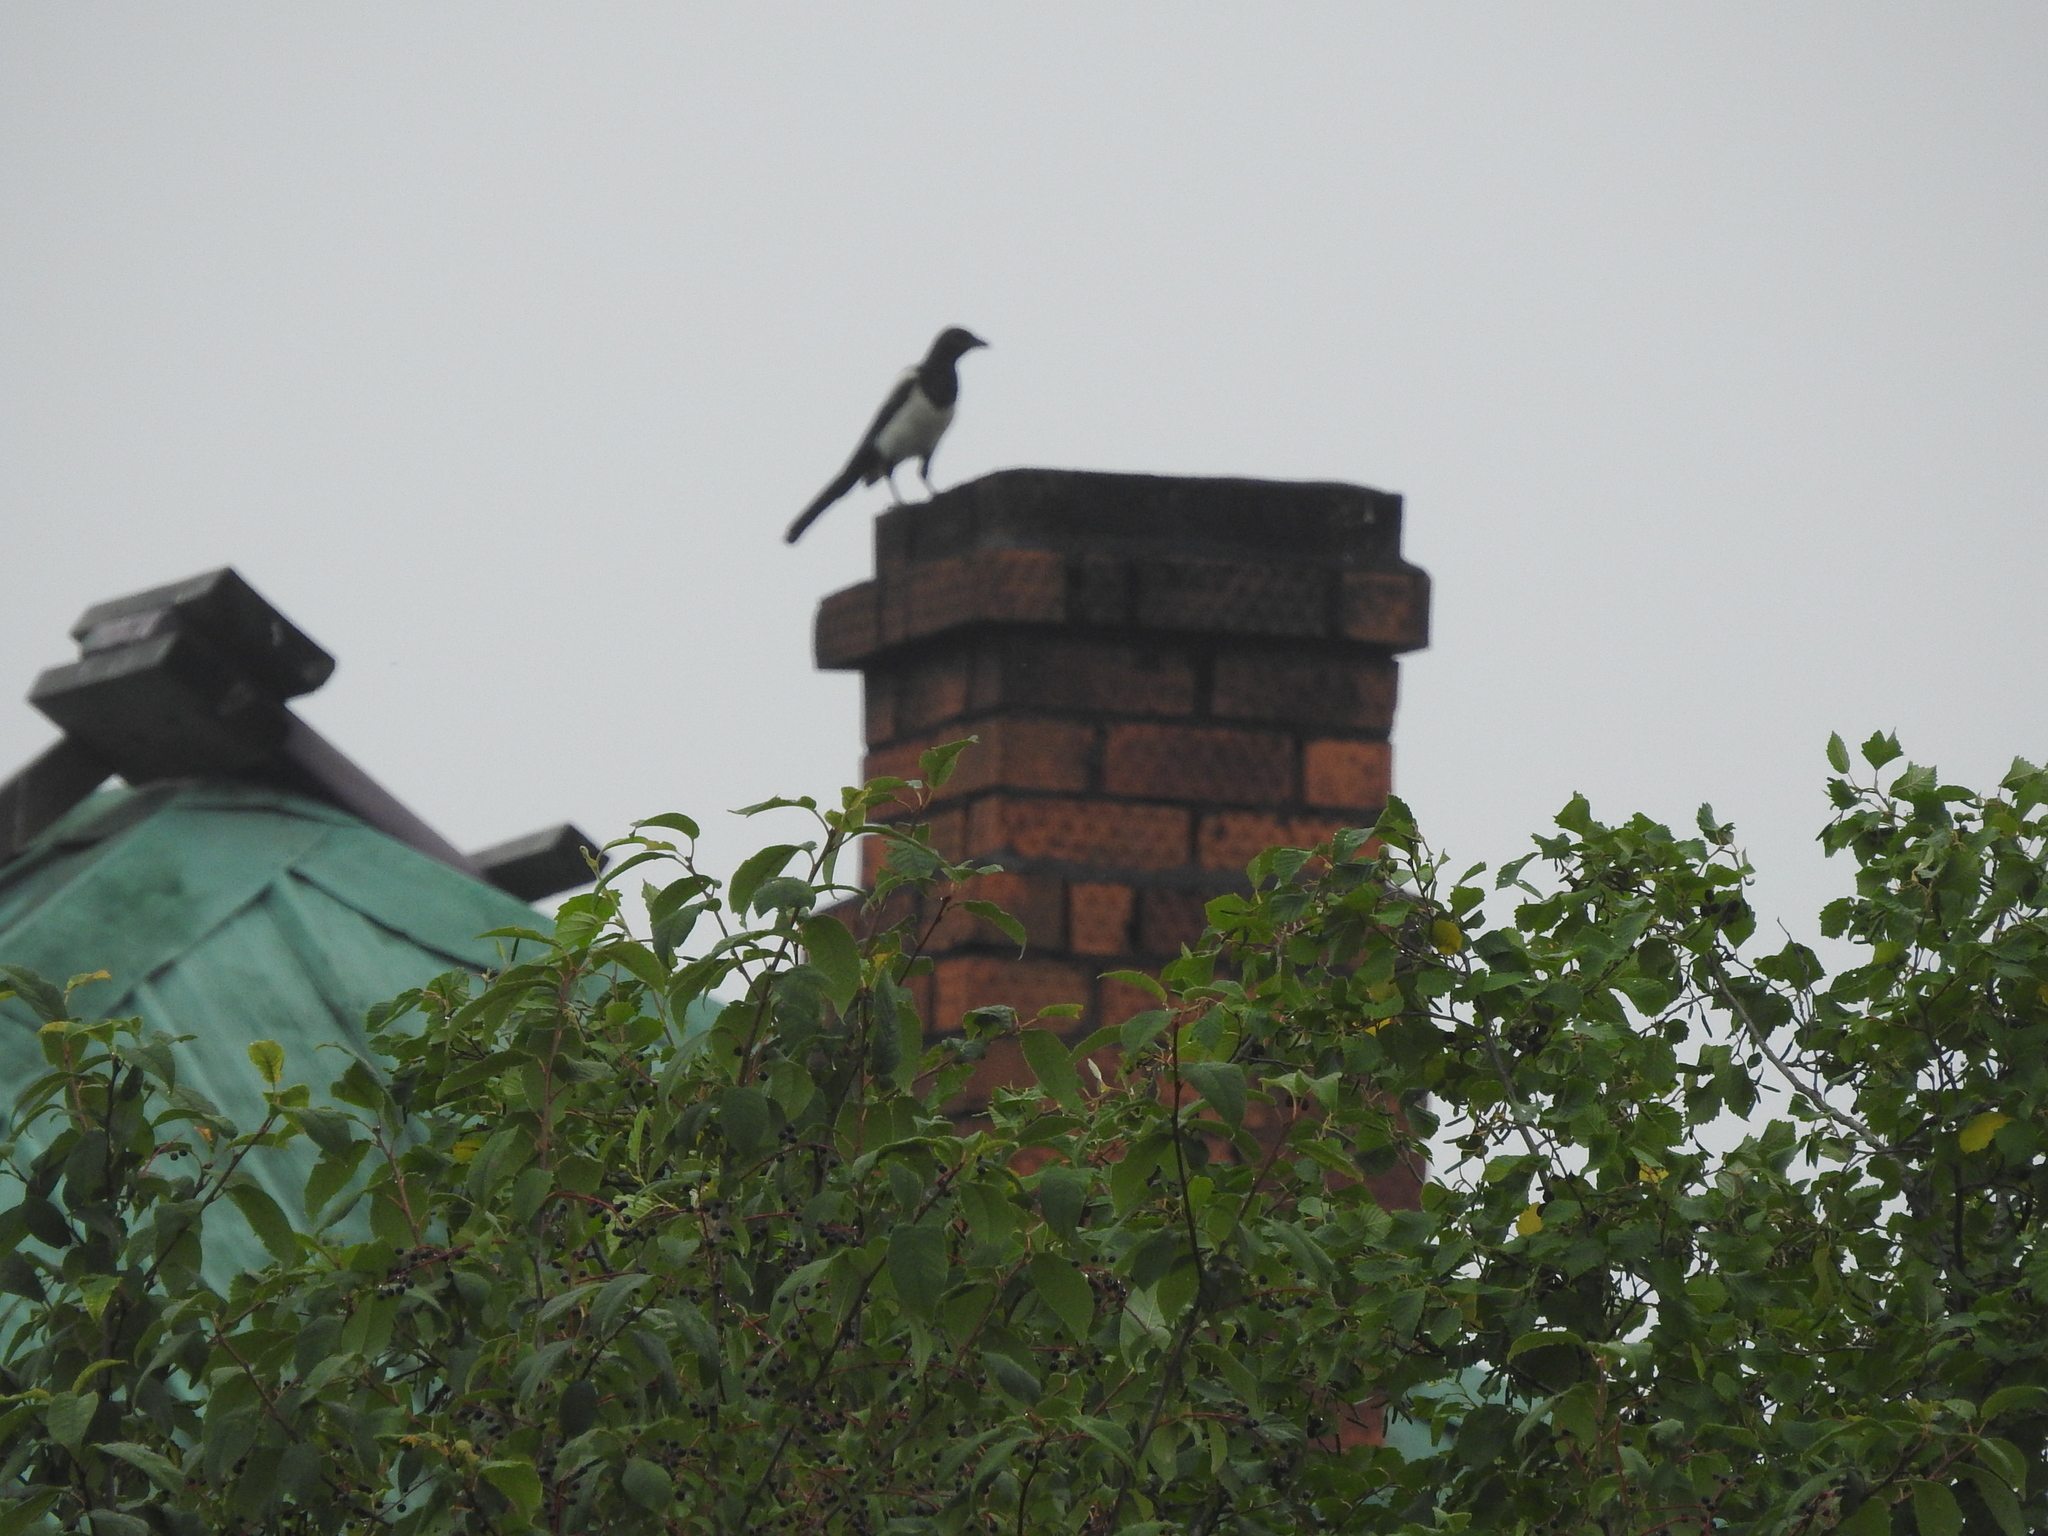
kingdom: Animalia
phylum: Chordata
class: Aves
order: Passeriformes
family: Corvidae
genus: Pica
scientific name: Pica pica
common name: Eurasian magpie
